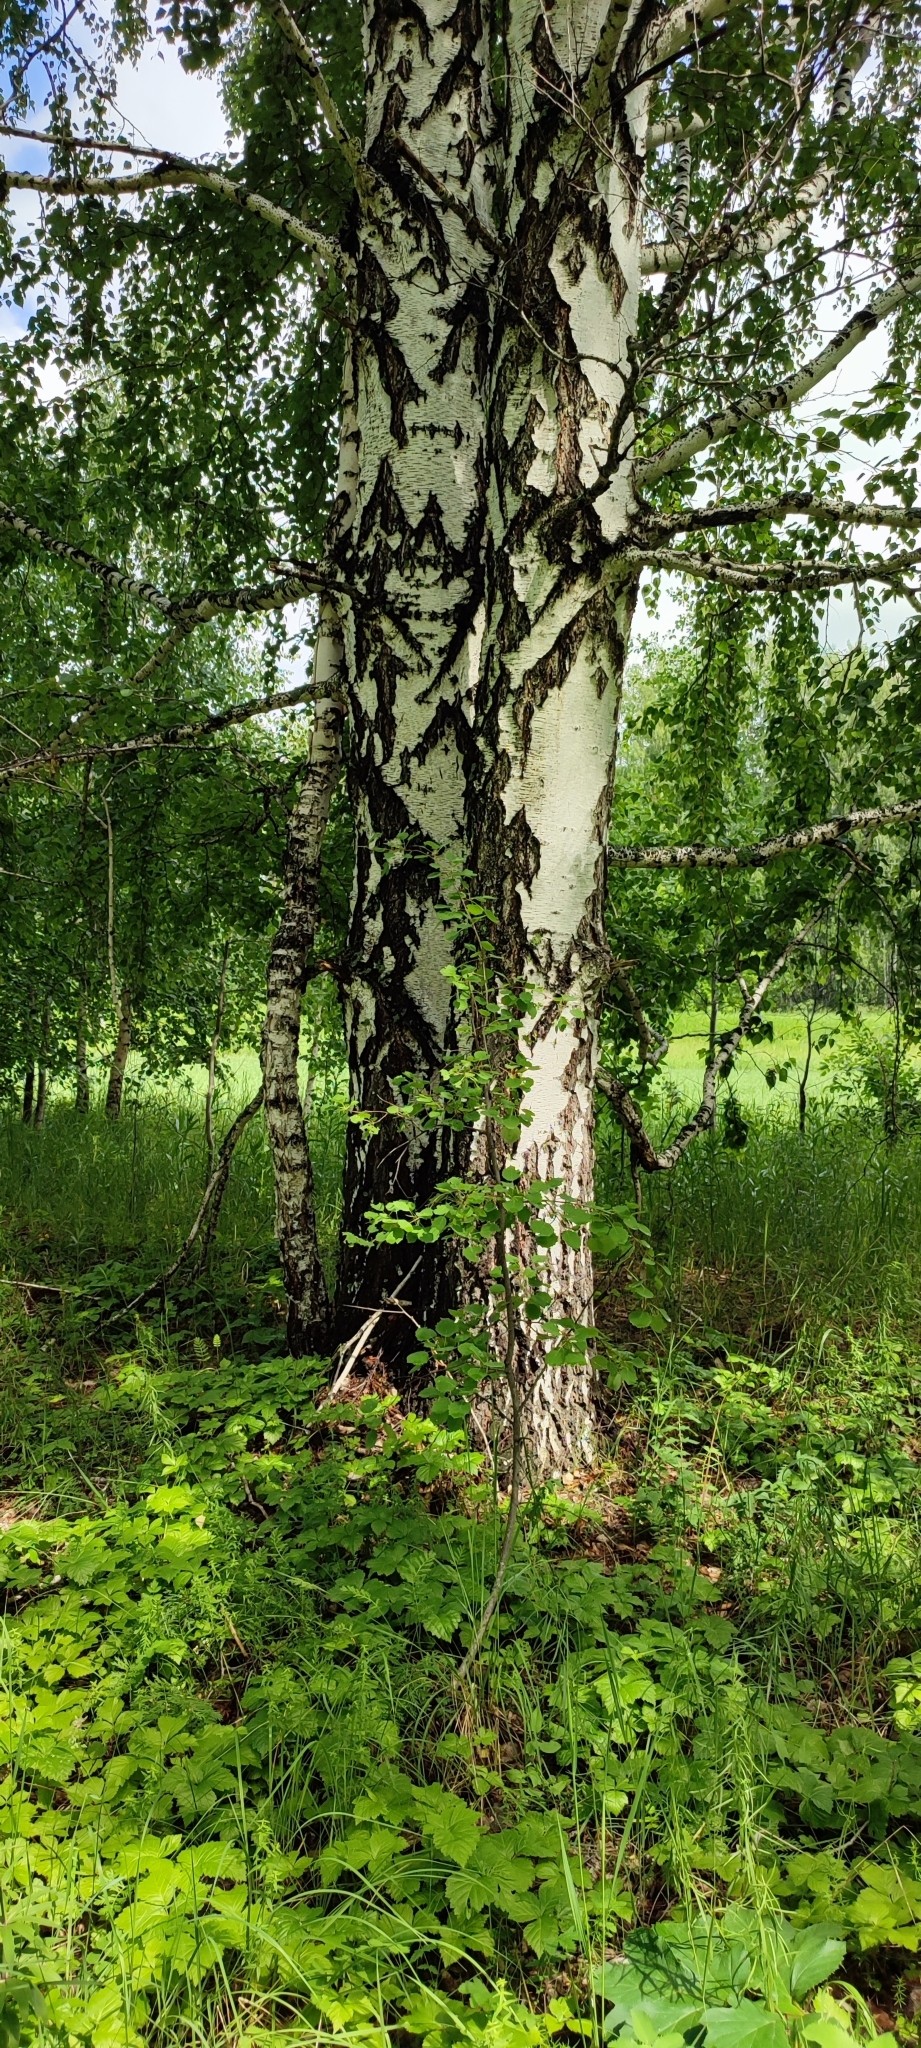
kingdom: Plantae
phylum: Tracheophyta
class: Magnoliopsida
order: Fagales
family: Betulaceae
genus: Betula
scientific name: Betula pendula
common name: Silver birch
